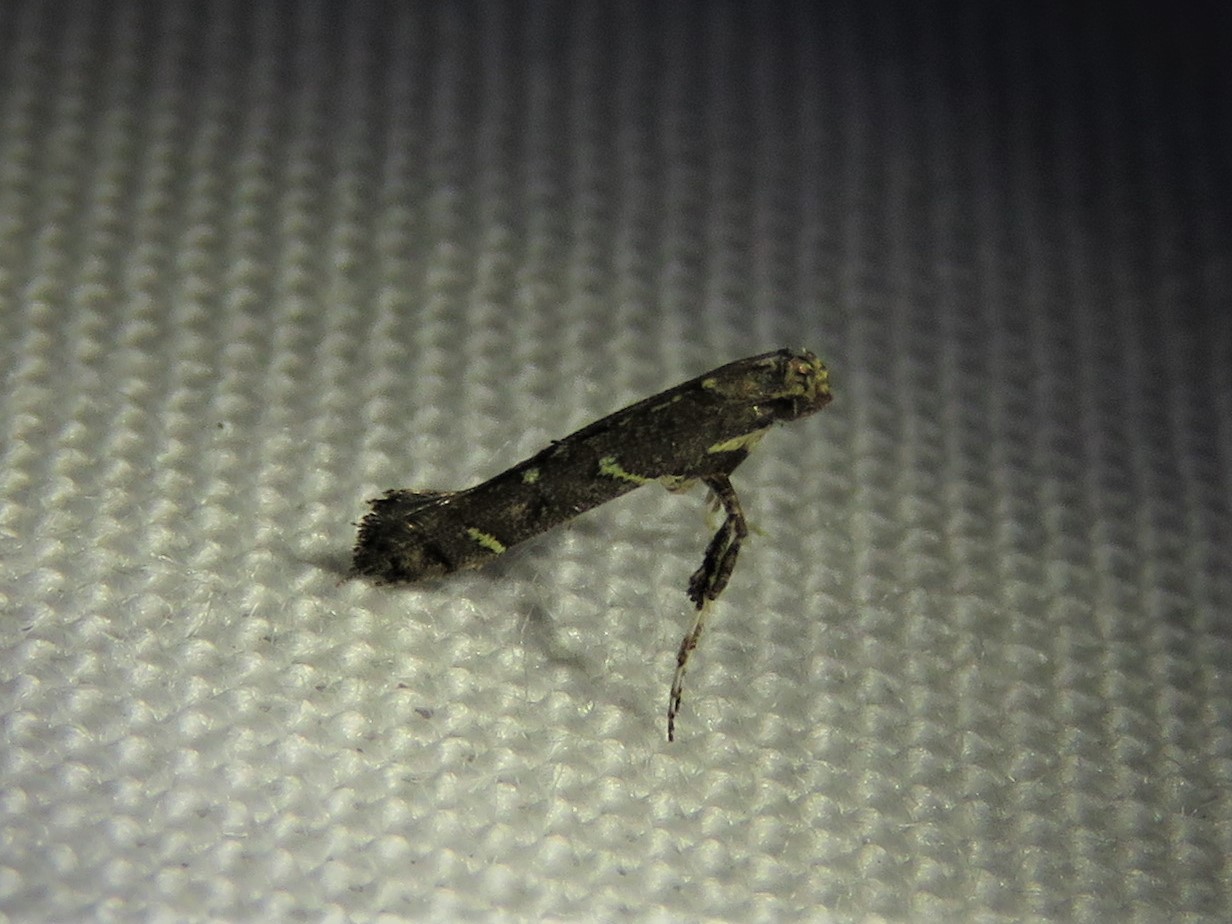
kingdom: Animalia
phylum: Arthropoda
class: Insecta
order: Lepidoptera
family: Gracillariidae
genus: Caloptilia
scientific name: Caloptilia triadicae
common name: Tallow leaf roller
